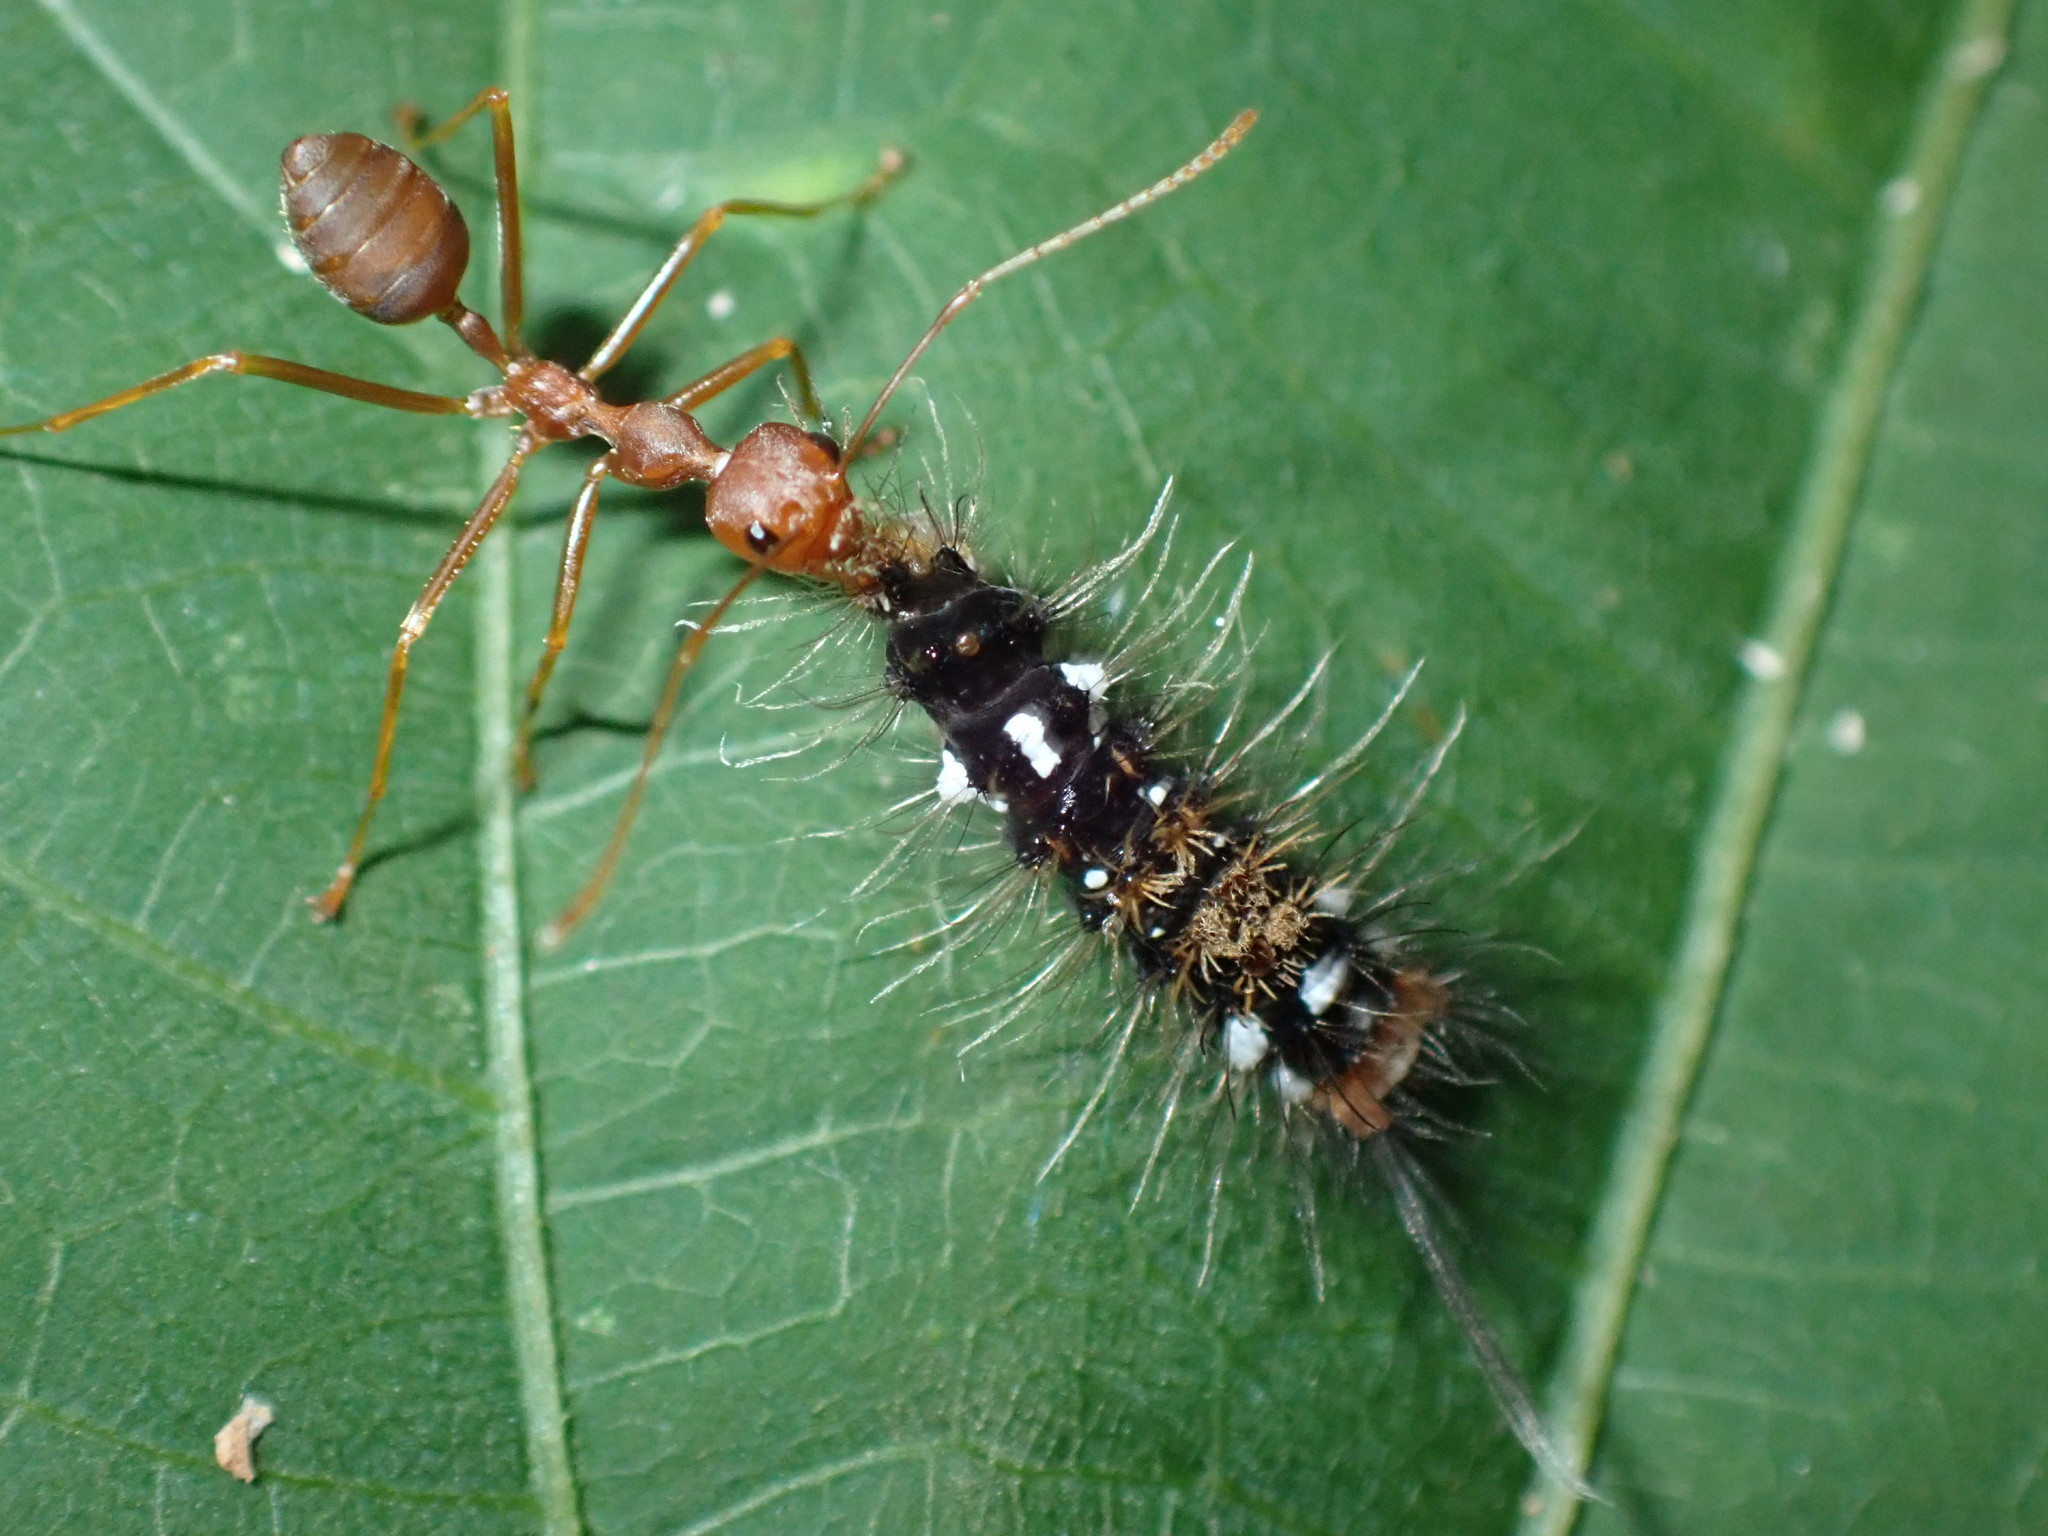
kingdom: Animalia
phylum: Arthropoda
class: Insecta
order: Hymenoptera
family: Formicidae
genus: Oecophylla
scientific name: Oecophylla smaragdina
